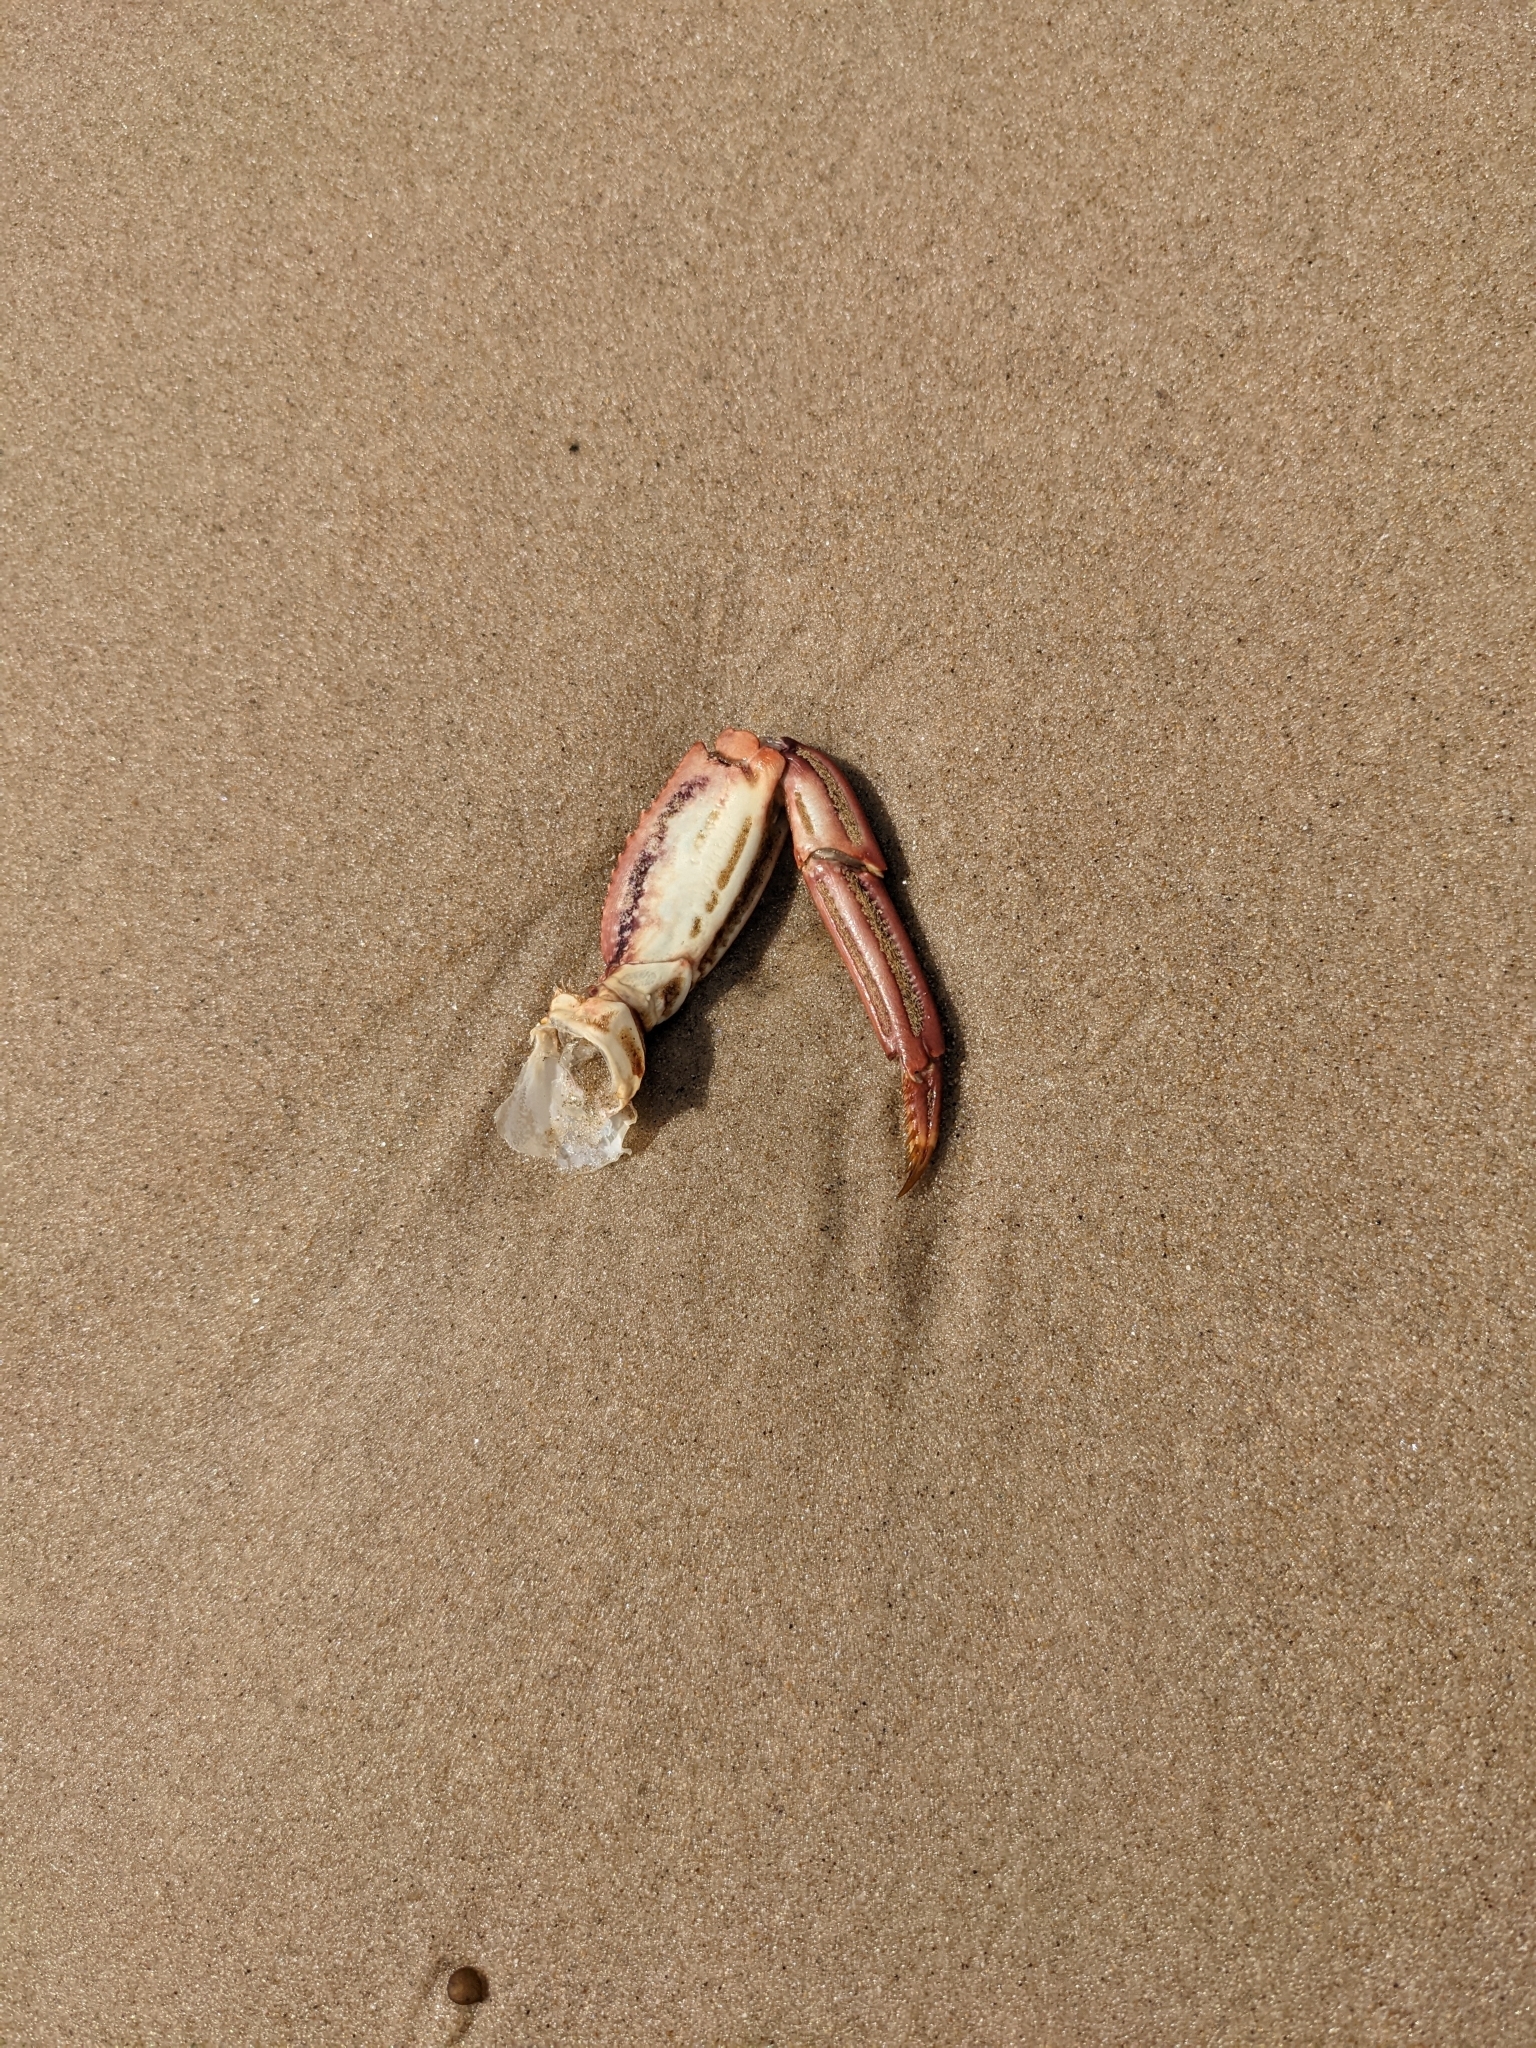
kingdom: Animalia
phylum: Arthropoda
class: Malacostraca
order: Decapoda
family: Plagusiidae
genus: Guinusia
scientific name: Guinusia chabrus
